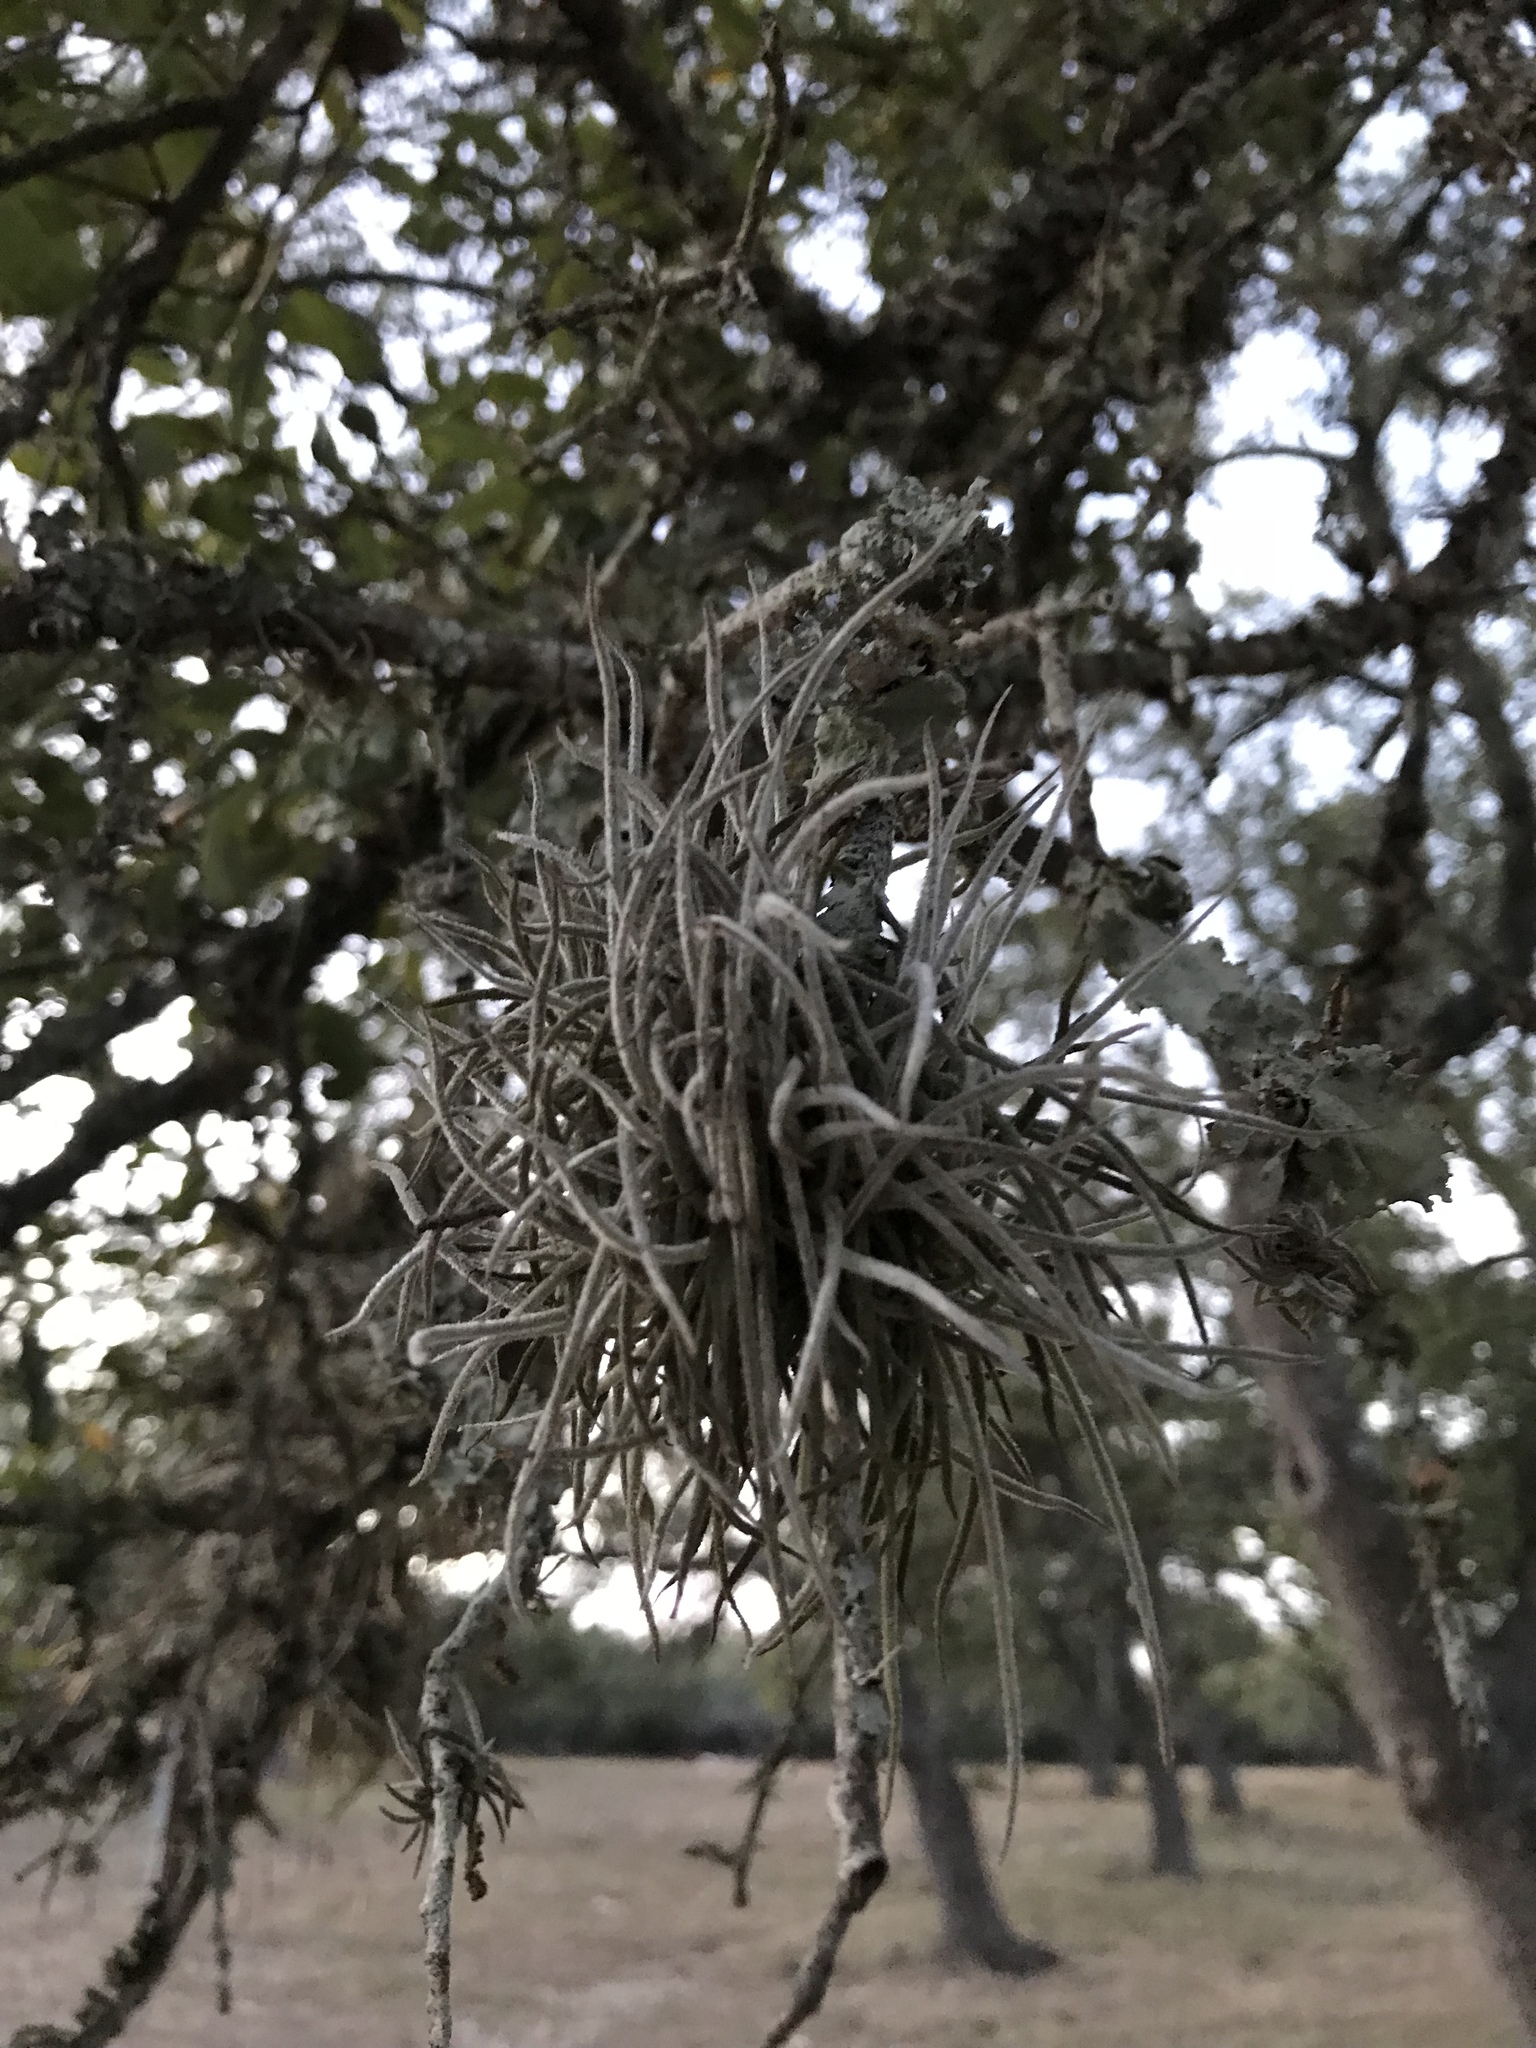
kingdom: Plantae
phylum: Tracheophyta
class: Liliopsida
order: Poales
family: Bromeliaceae
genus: Tillandsia
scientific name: Tillandsia recurvata
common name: Small ballmoss
